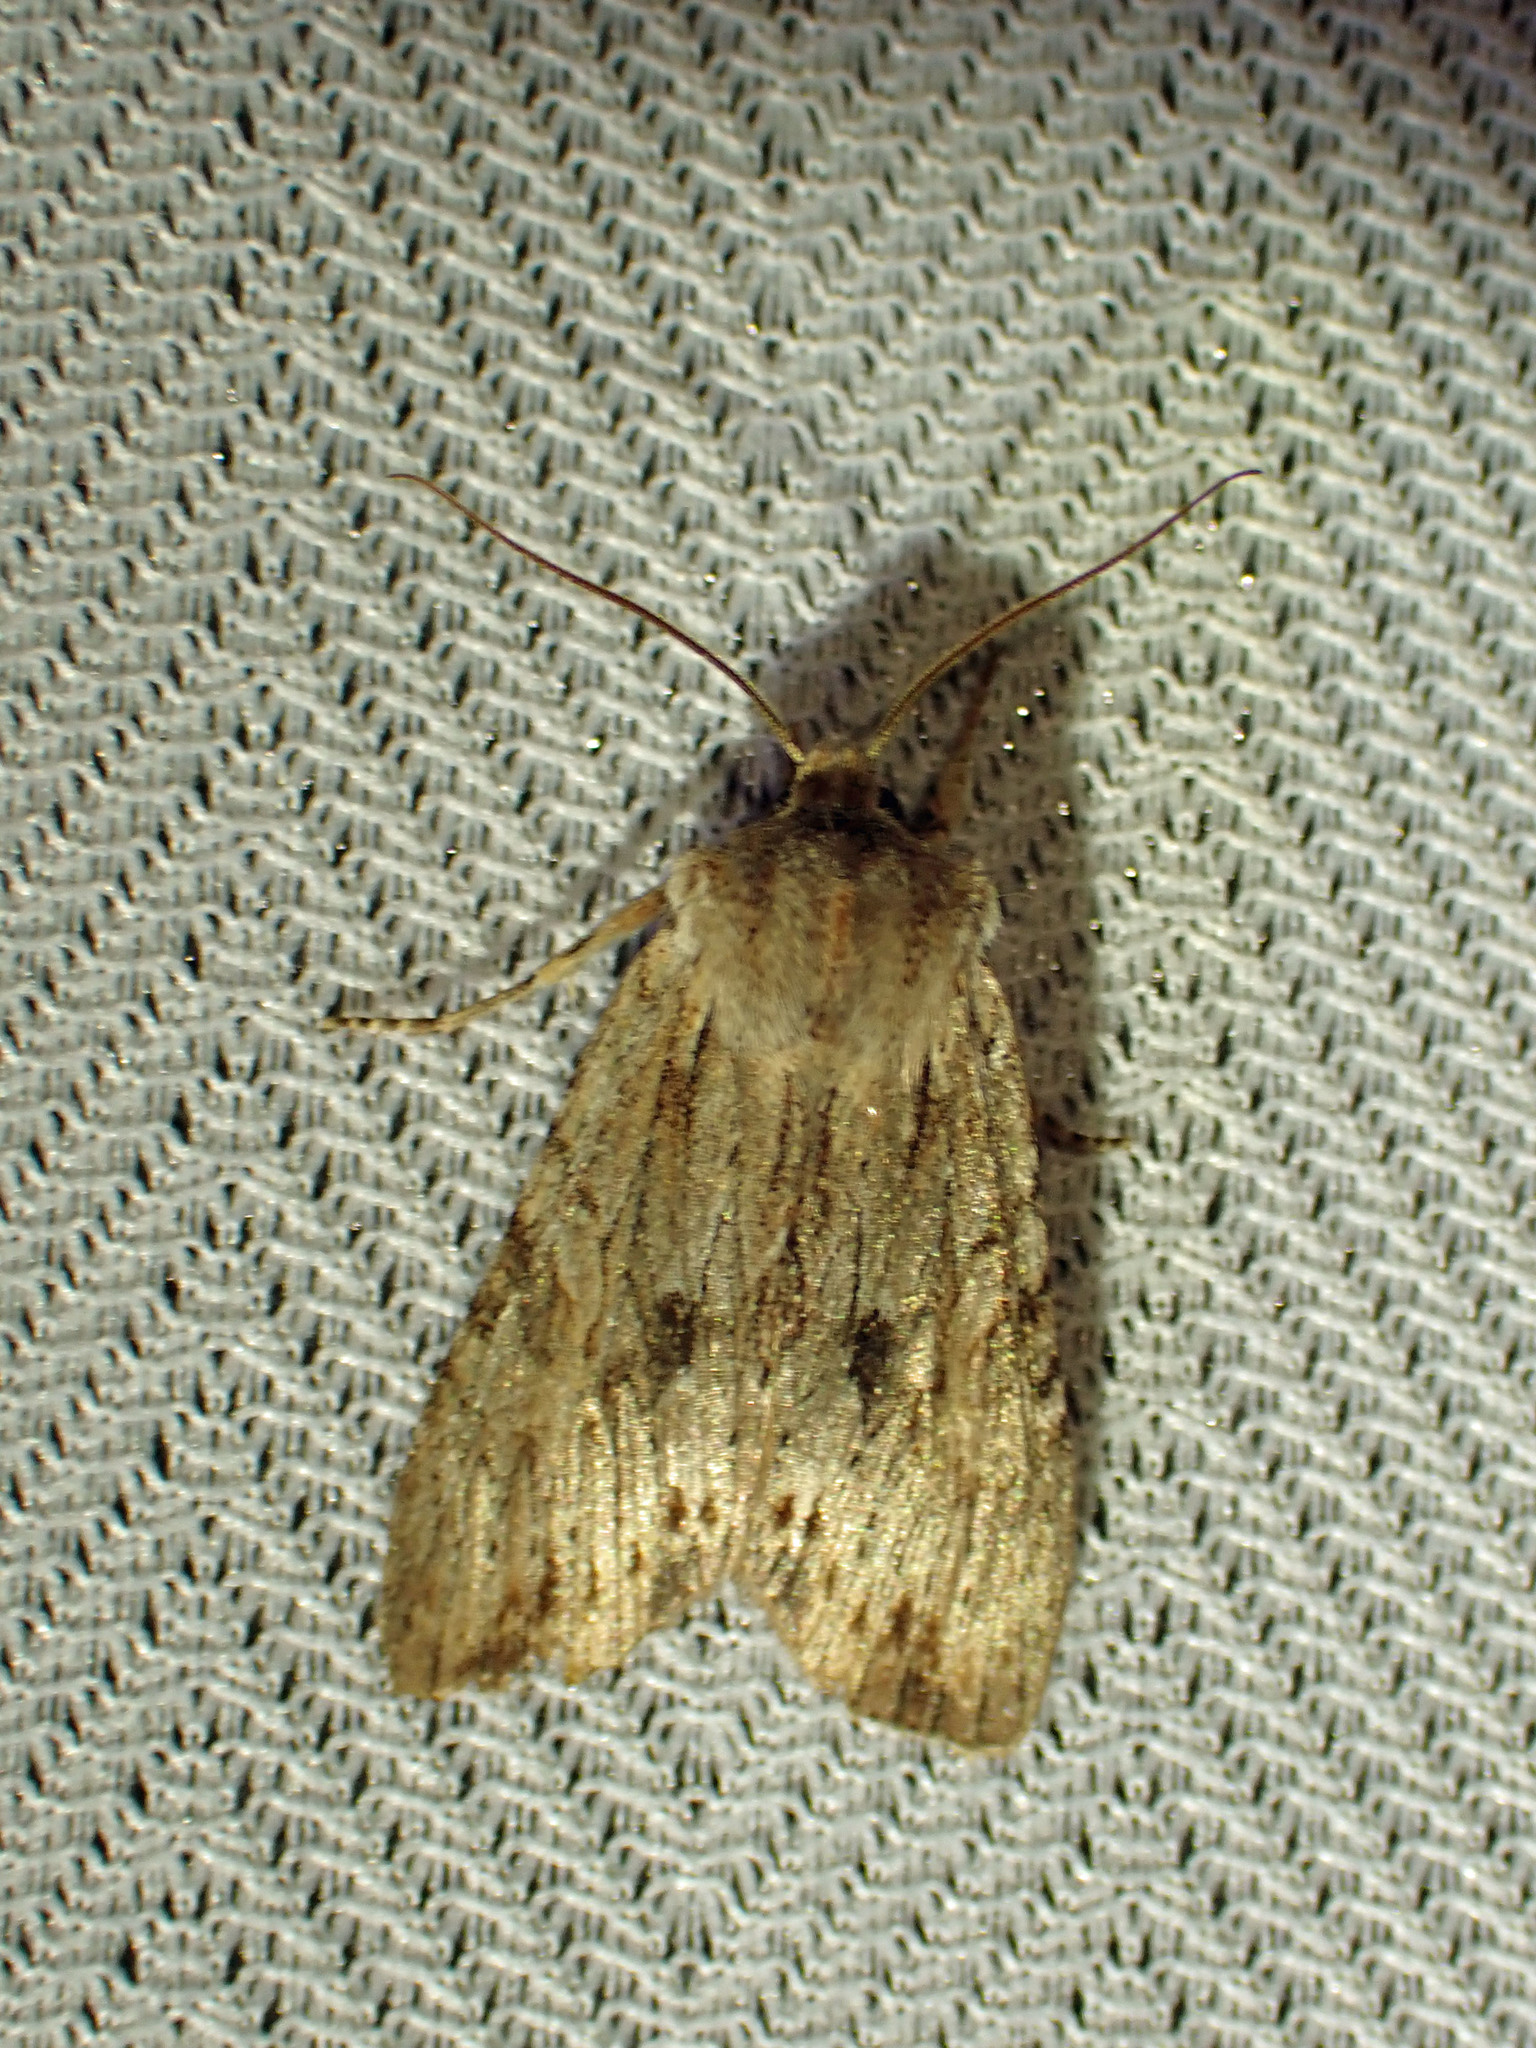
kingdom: Animalia
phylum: Arthropoda
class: Insecta
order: Lepidoptera
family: Noctuidae
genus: Lithophane
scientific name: Lithophane innominata
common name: Nameless pinion moth
